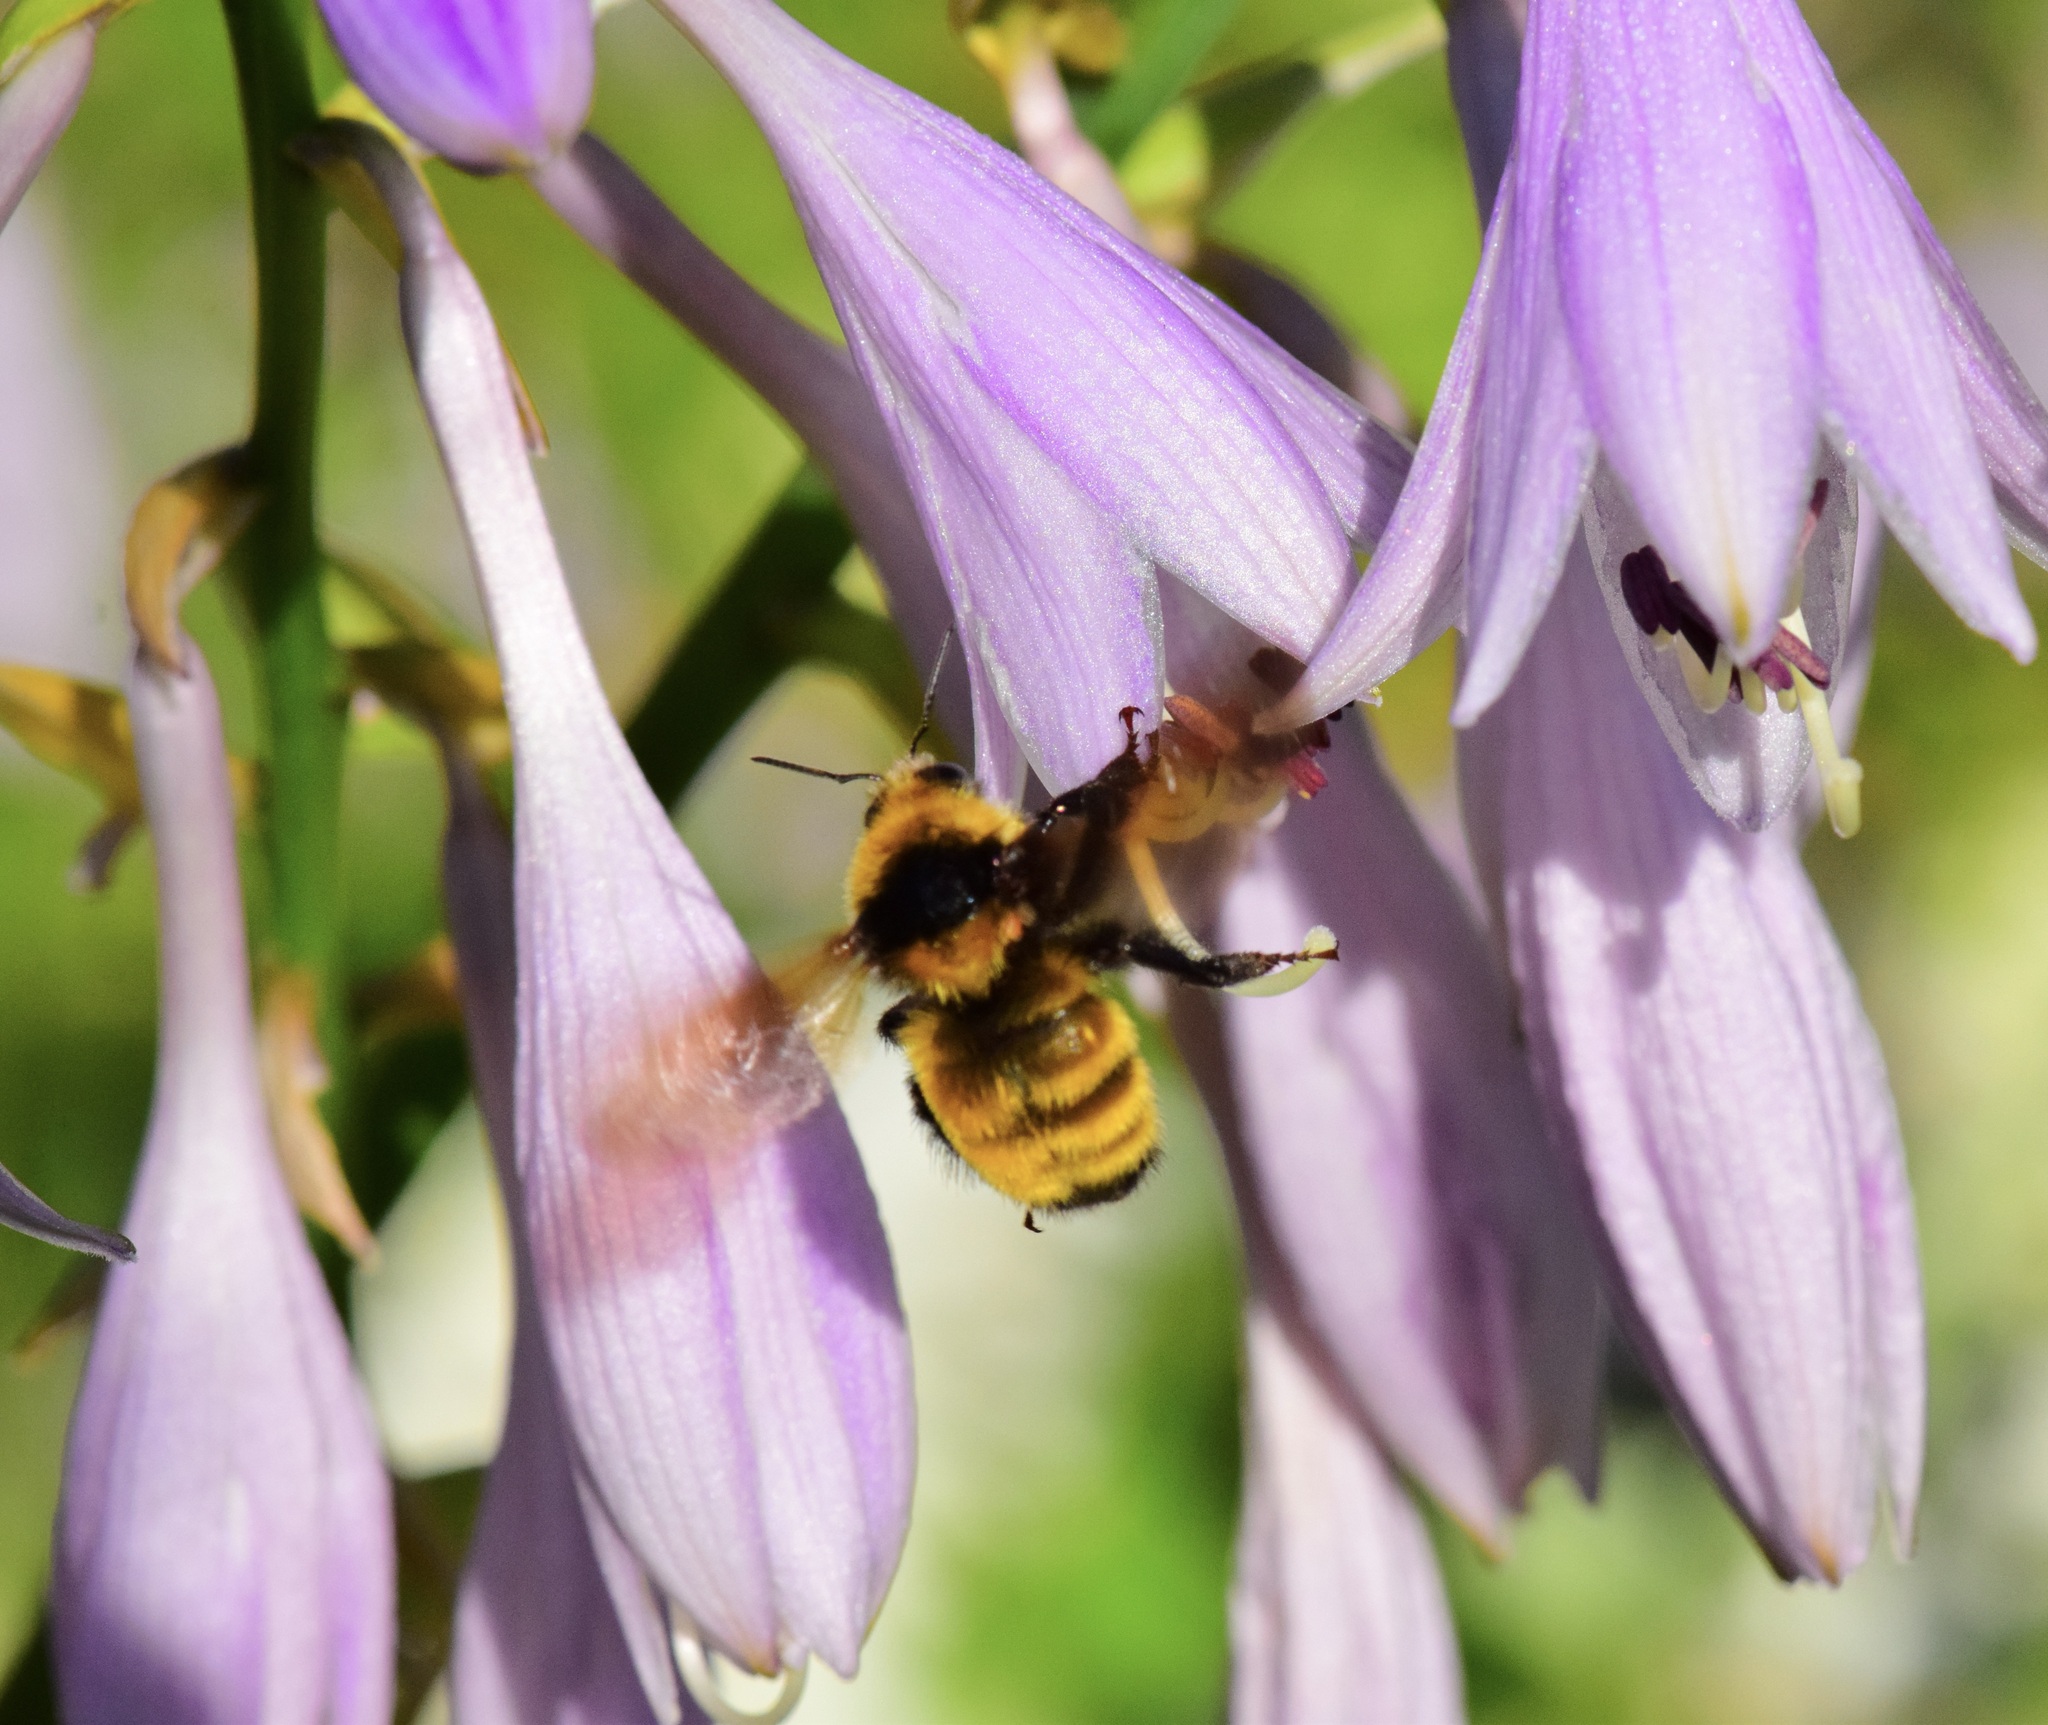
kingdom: Animalia
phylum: Arthropoda
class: Insecta
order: Hymenoptera
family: Apidae
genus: Bombus
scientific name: Bombus borealis
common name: Northern amber bumble bee
